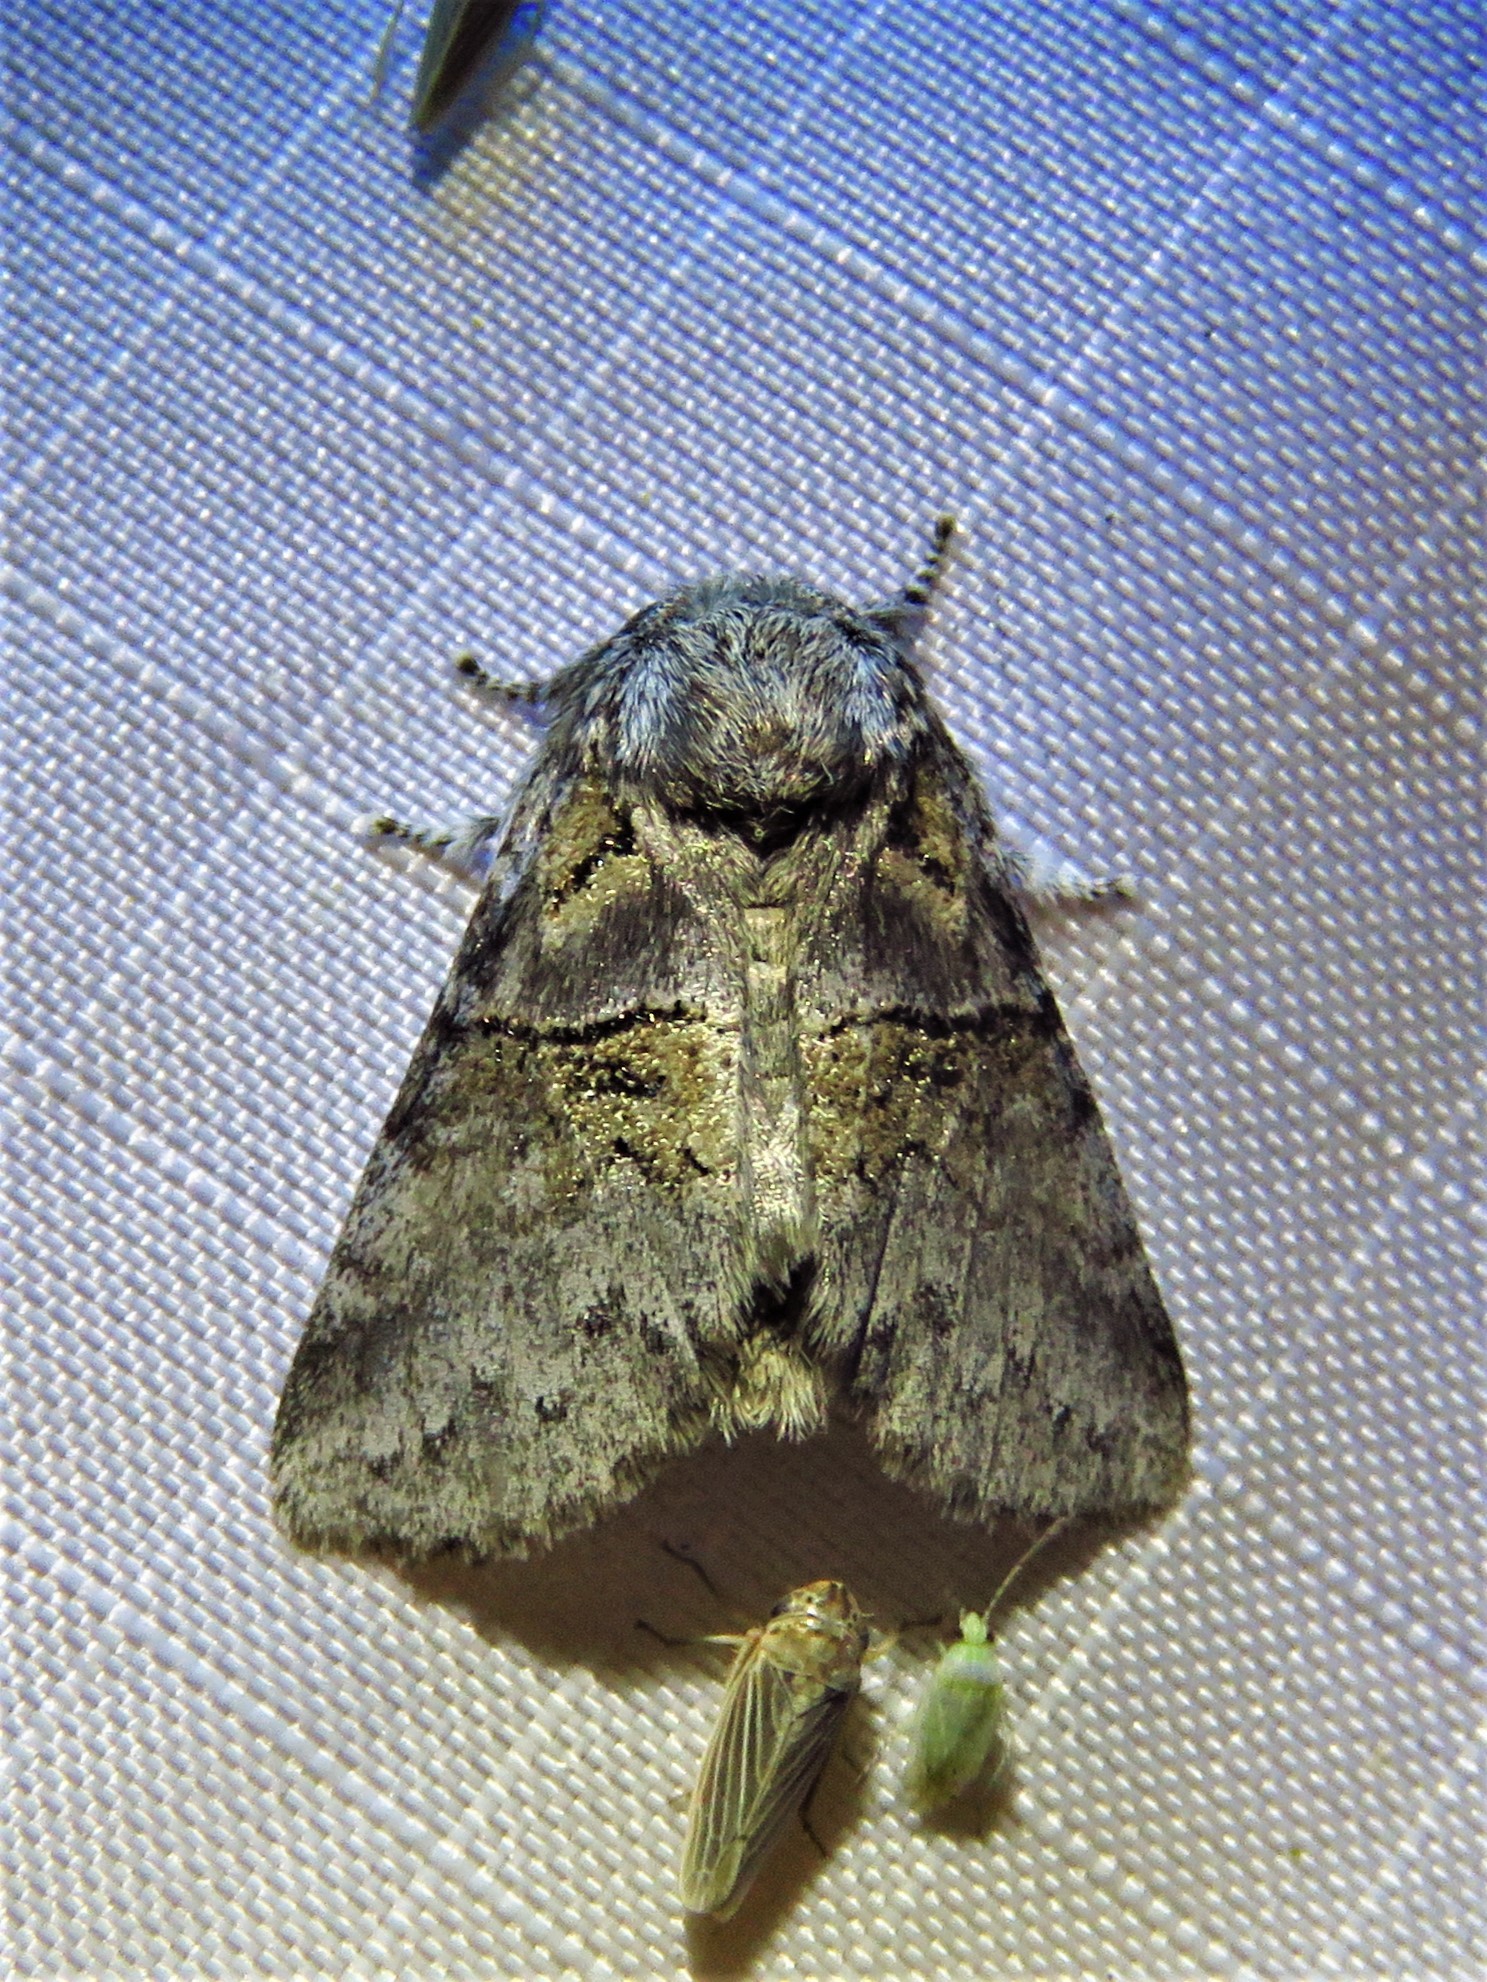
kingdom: Animalia
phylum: Arthropoda
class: Insecta
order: Lepidoptera
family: Notodontidae
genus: Gluphisia
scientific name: Gluphisia septentrionis
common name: Common gluphisia
